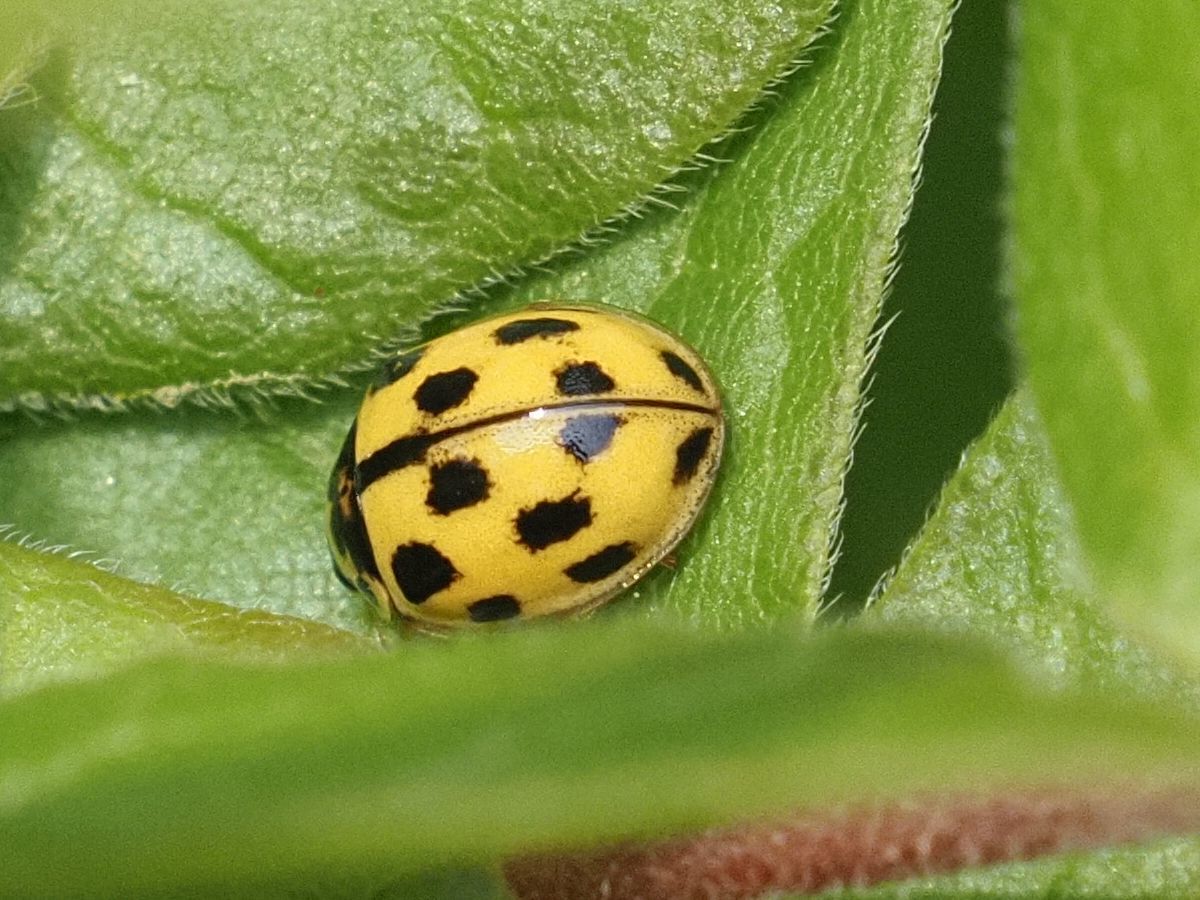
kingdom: Animalia
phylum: Arthropoda
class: Insecta
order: Coleoptera
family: Coccinellidae
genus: Propylaea
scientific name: Propylaea quatuordecimpunctata
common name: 14-spotted ladybird beetle
